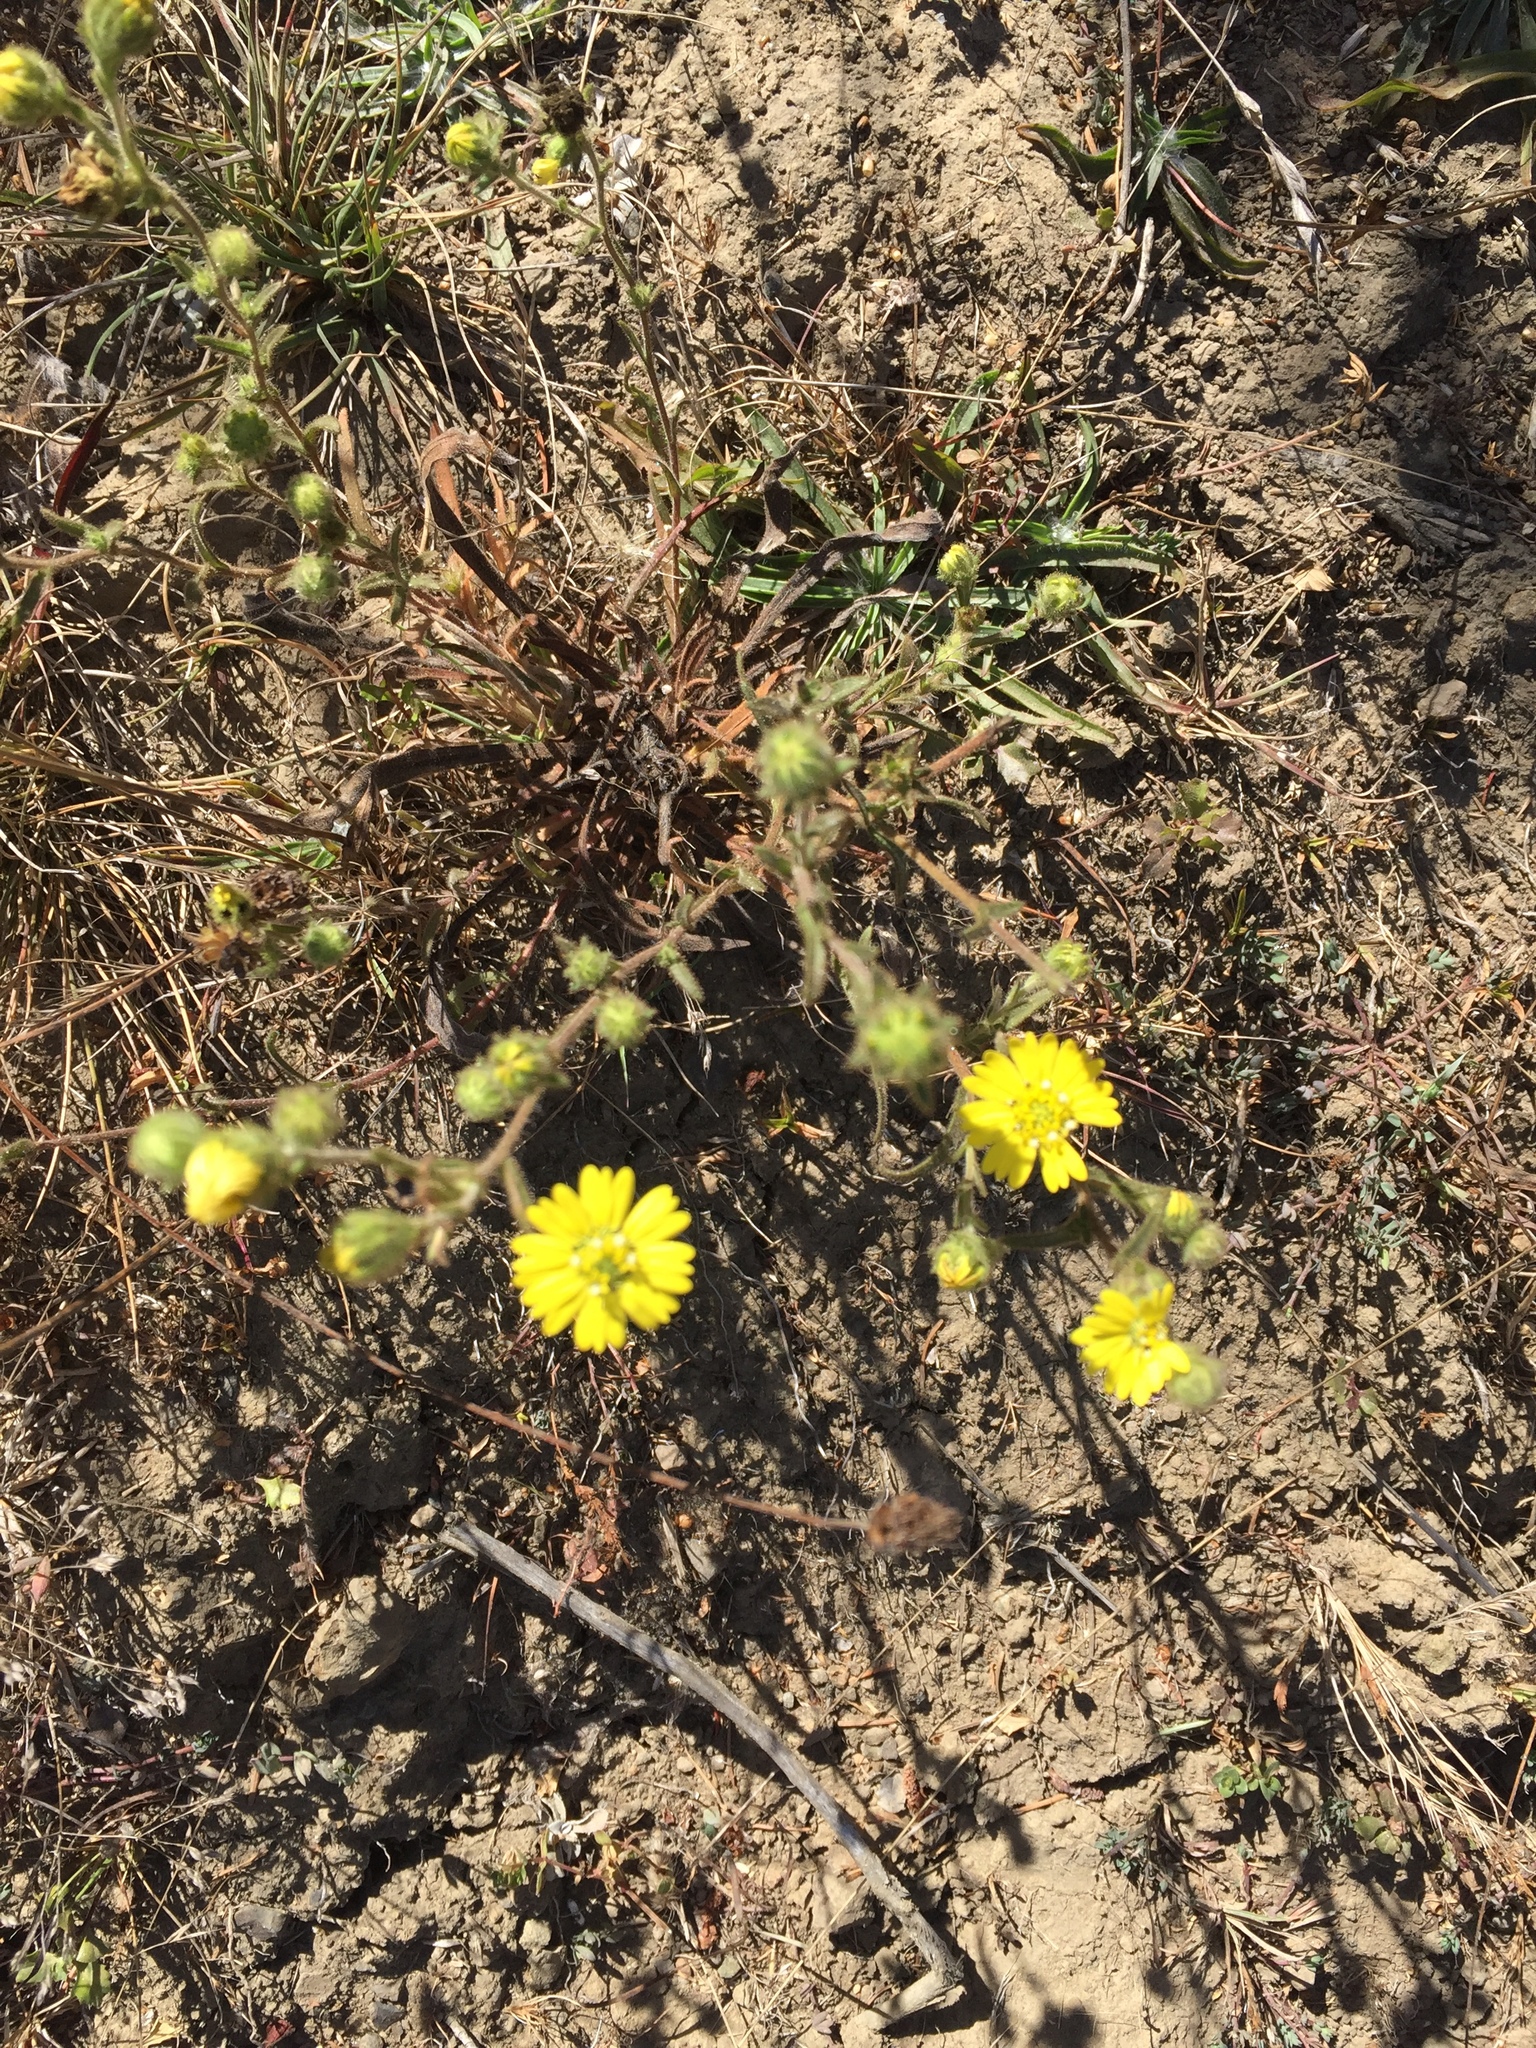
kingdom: Plantae
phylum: Tracheophyta
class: Magnoliopsida
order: Asterales
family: Asteraceae
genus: Hemizonia
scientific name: Hemizonia congesta
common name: Hayfield tarweed
